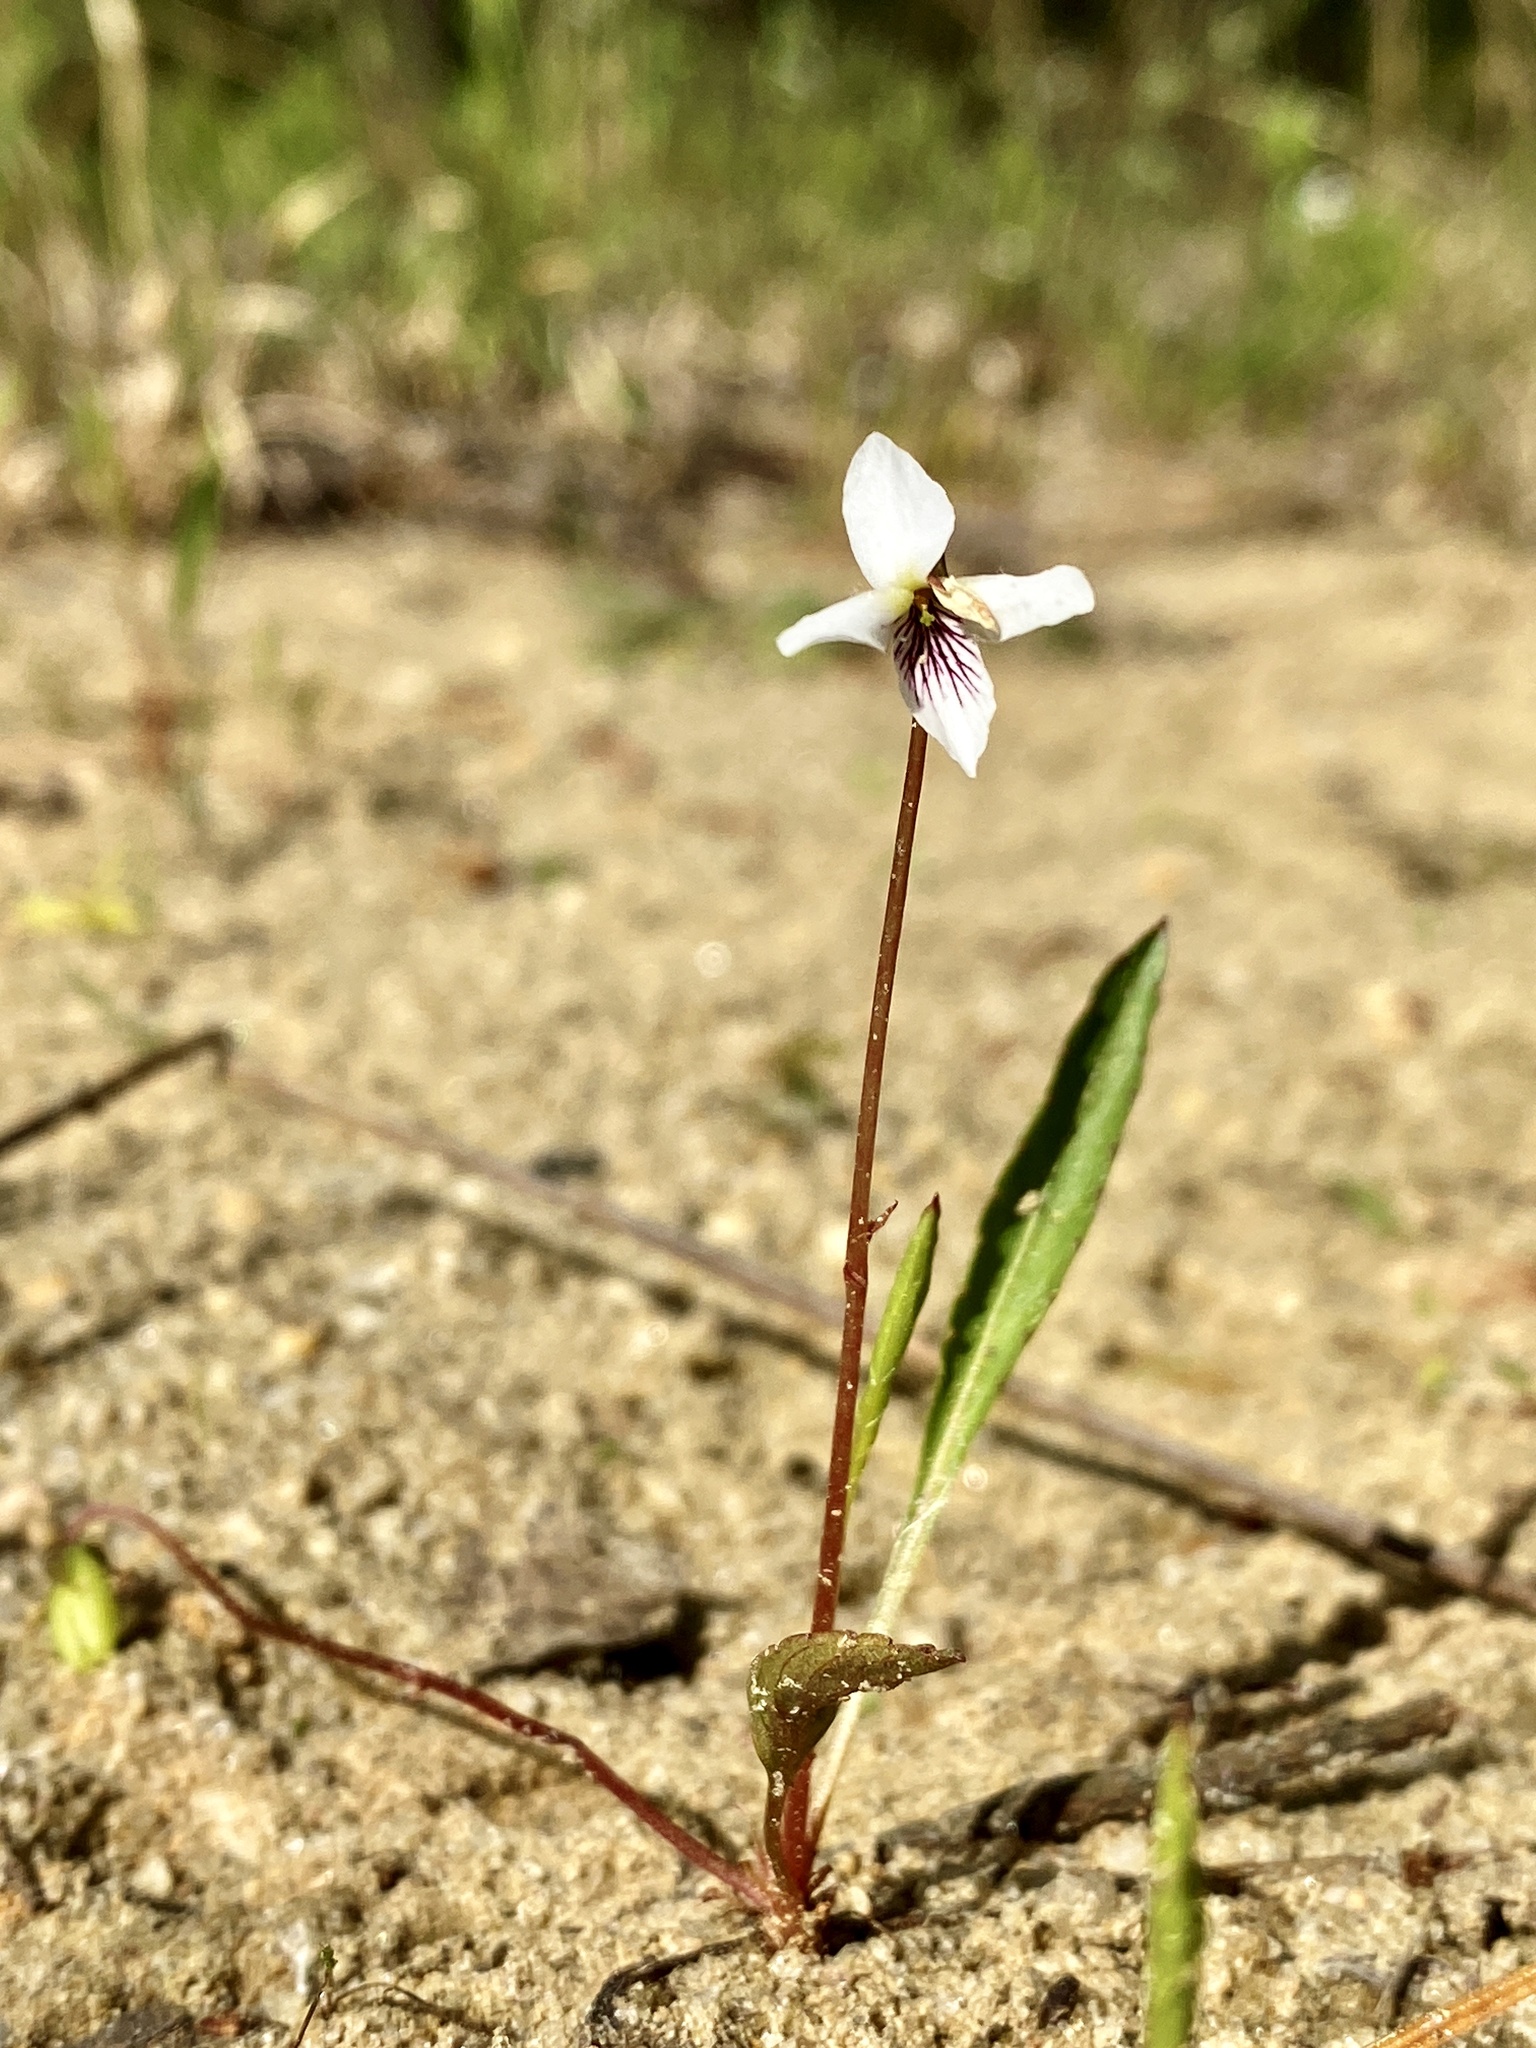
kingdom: Plantae
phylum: Tracheophyta
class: Magnoliopsida
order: Malpighiales
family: Violaceae
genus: Viola
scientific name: Viola lanceolata
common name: Bog white violet
